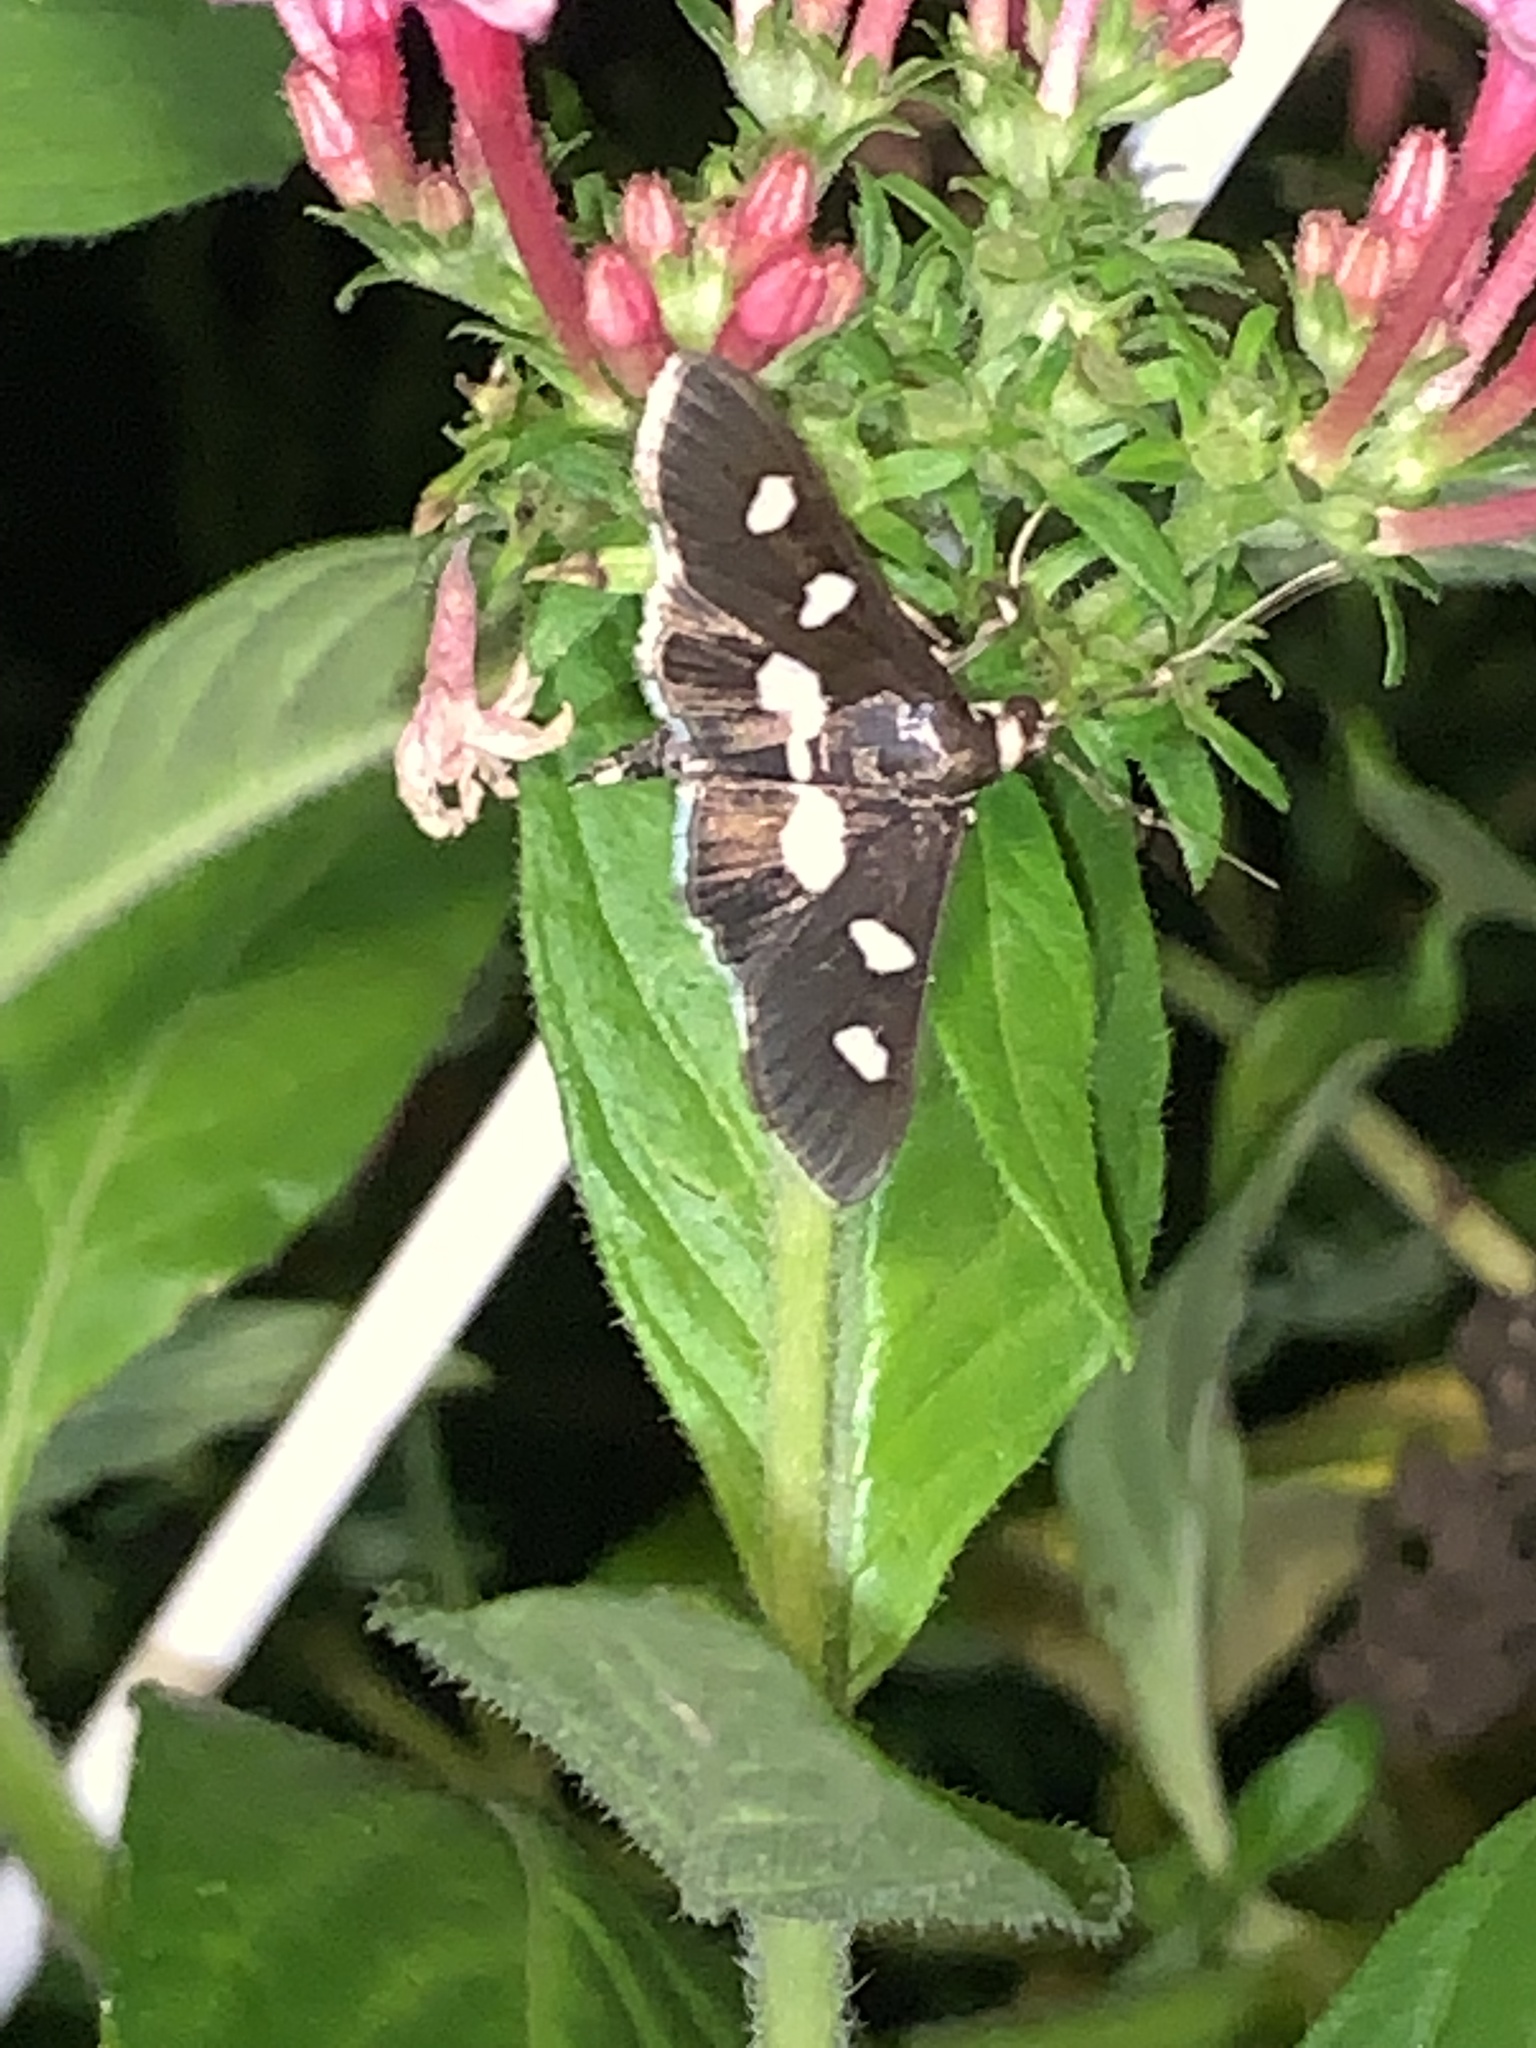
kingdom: Animalia
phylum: Arthropoda
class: Insecta
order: Lepidoptera
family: Crambidae
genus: Desmia
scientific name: Desmia
